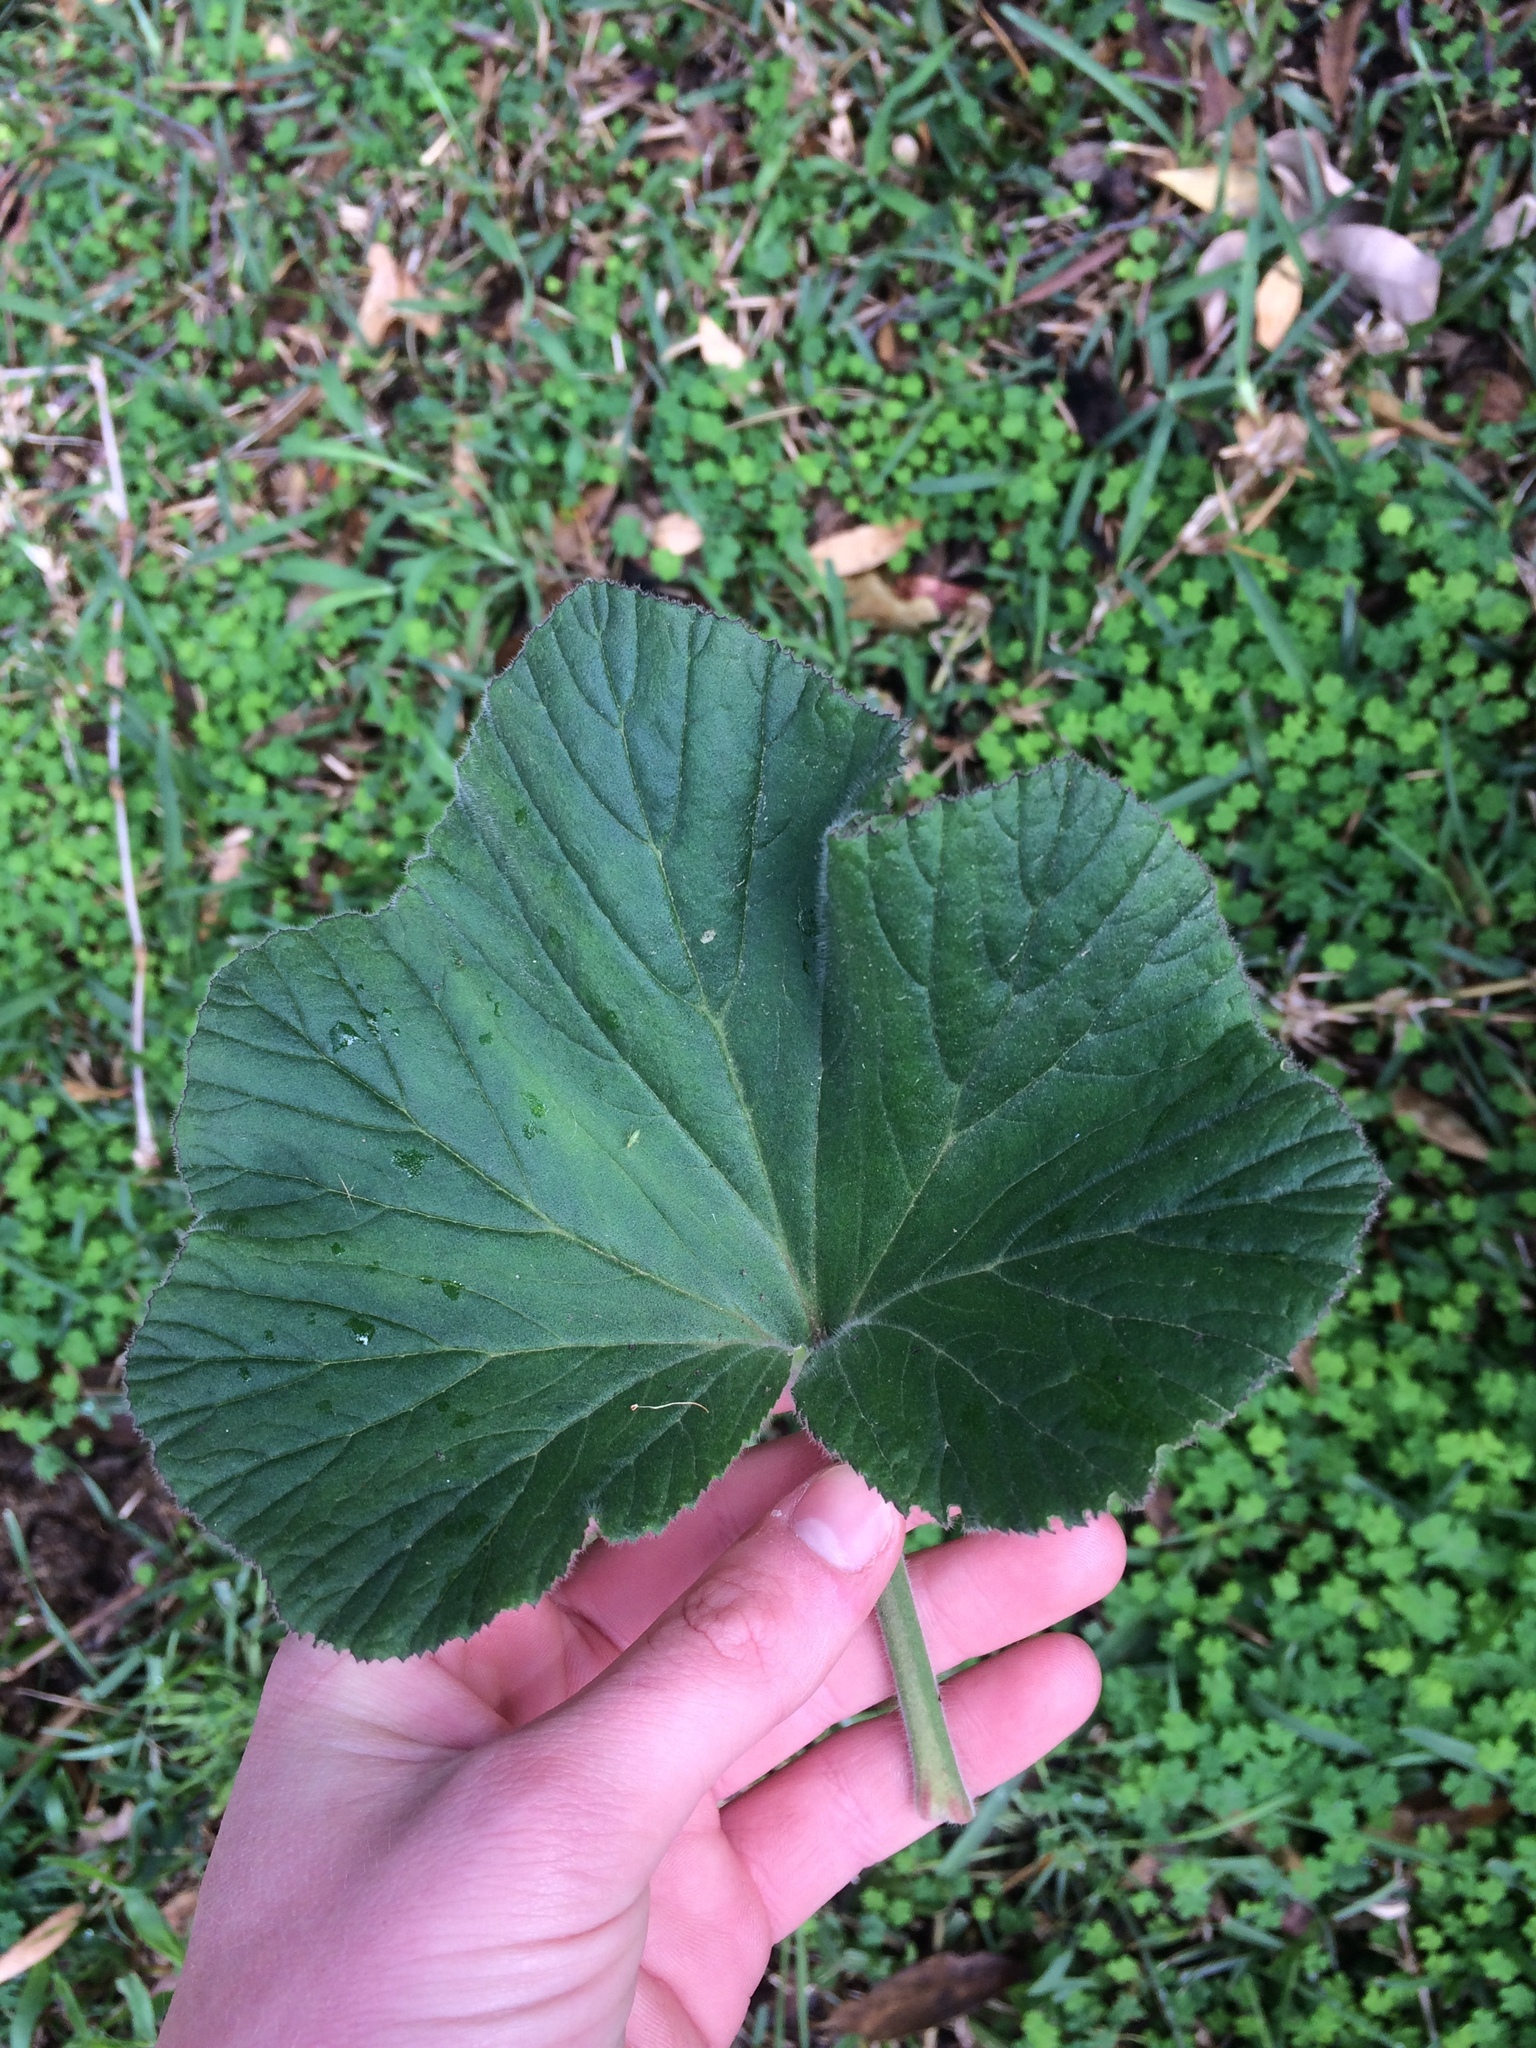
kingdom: Plantae
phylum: Tracheophyta
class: Magnoliopsida
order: Geraniales
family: Geraniaceae
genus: Pelargonium
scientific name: Pelargonium cucullatum
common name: Tree pelargonium
